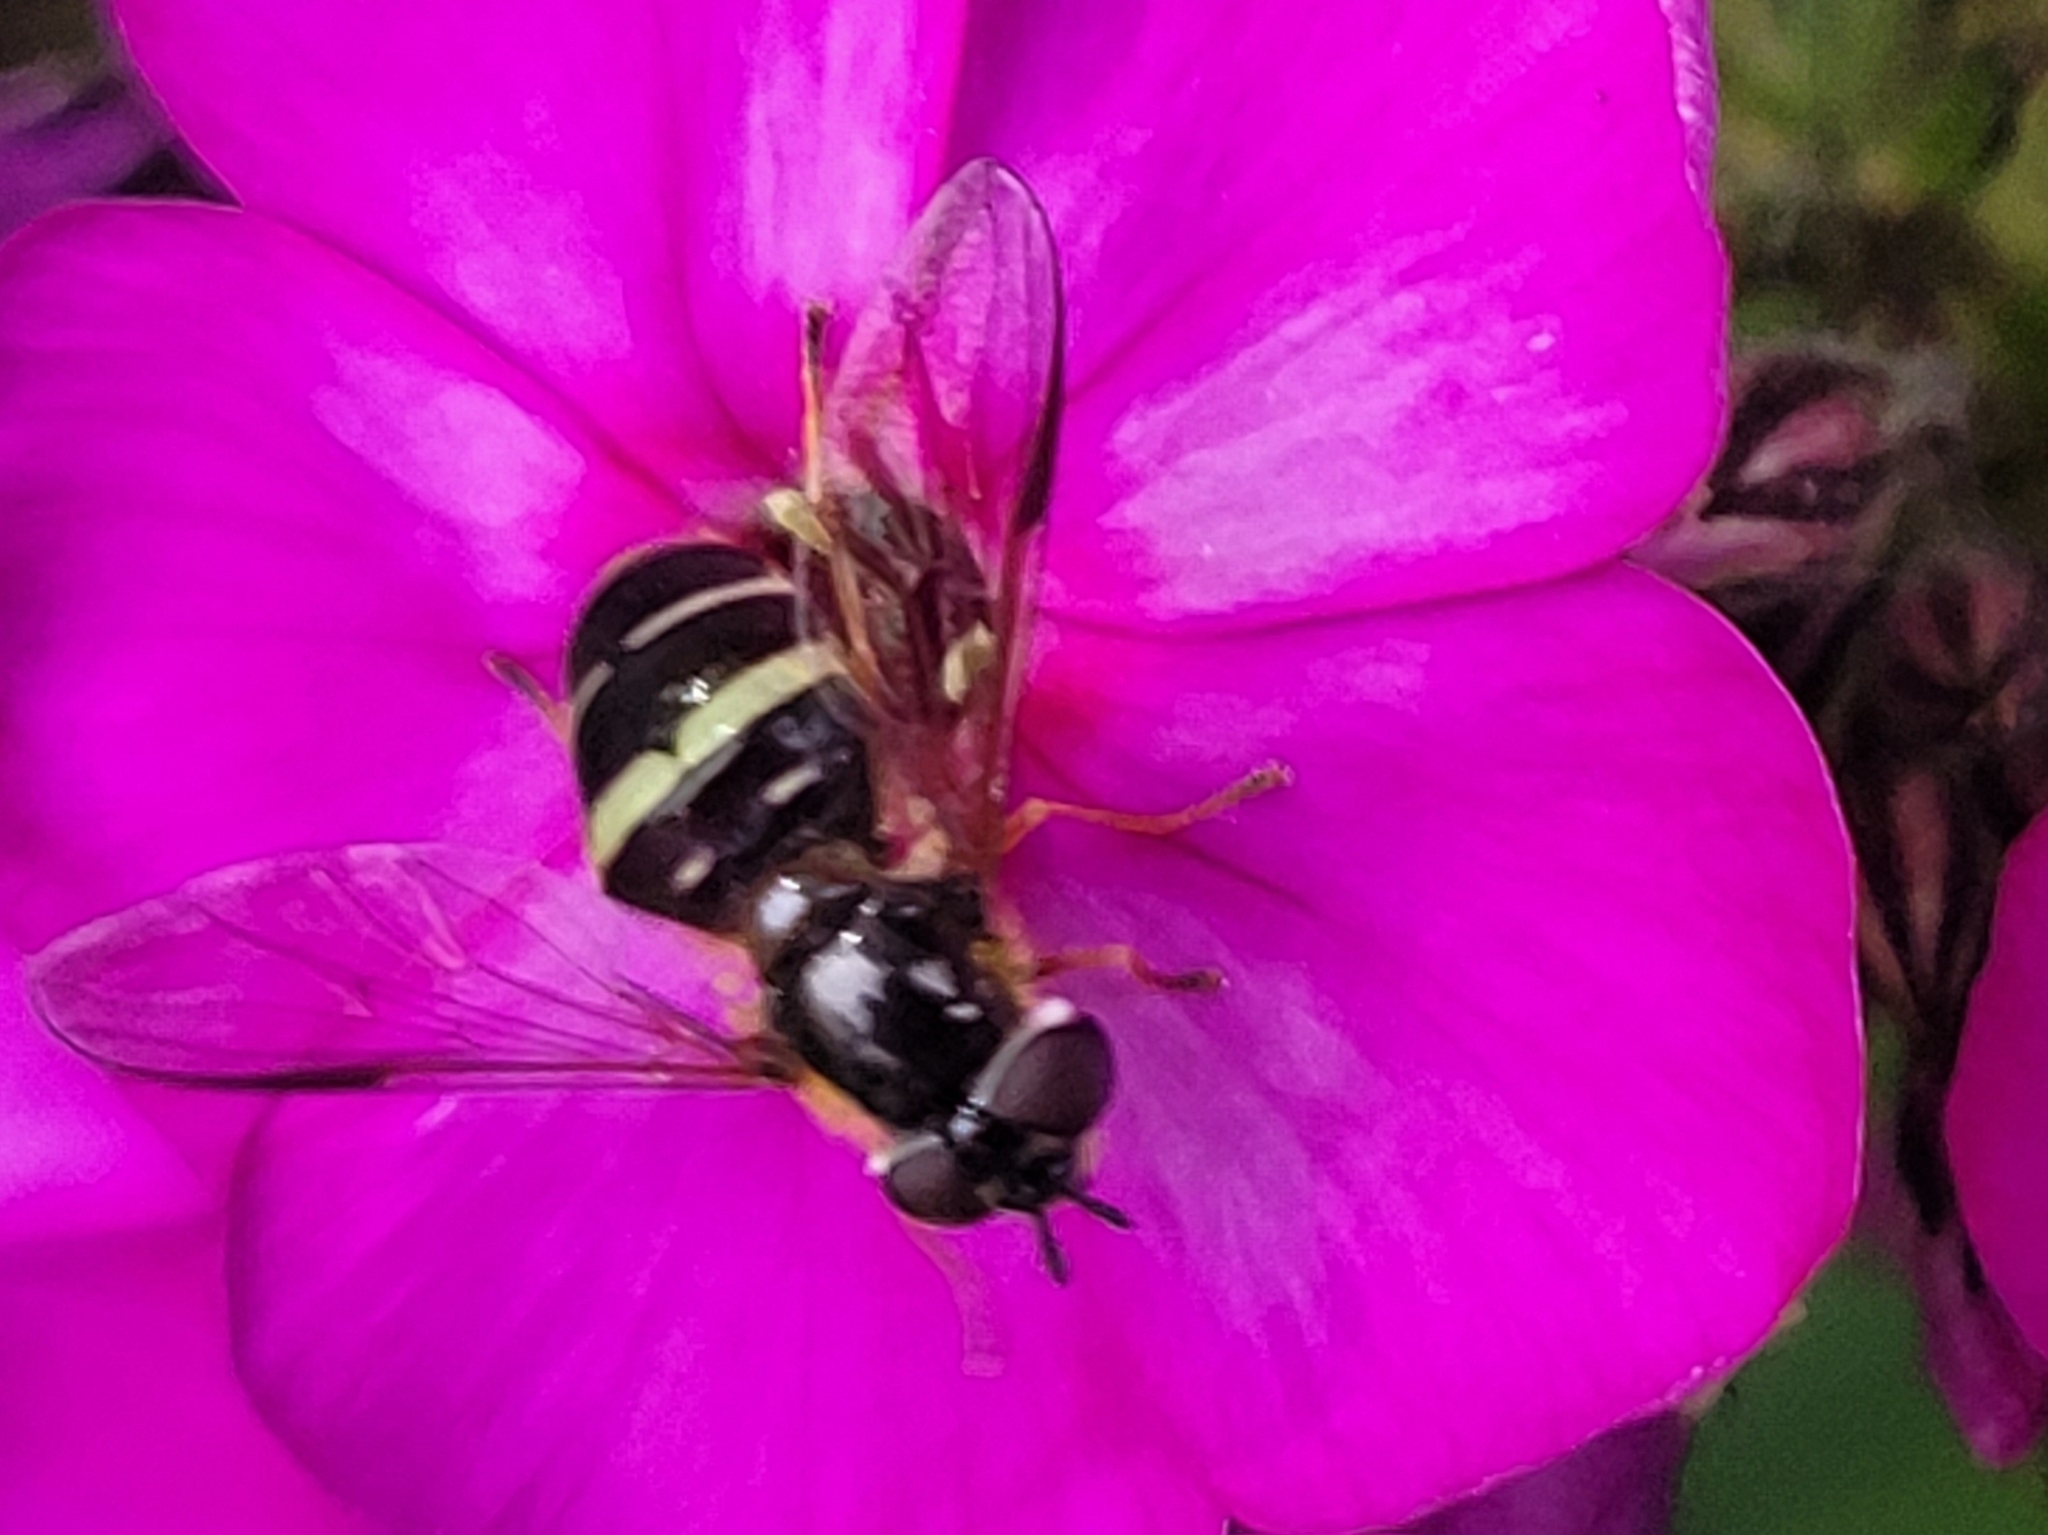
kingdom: Animalia
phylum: Arthropoda
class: Insecta
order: Diptera
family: Syrphidae
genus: Dasysyrphus
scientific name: Dasysyrphus tricinctus
